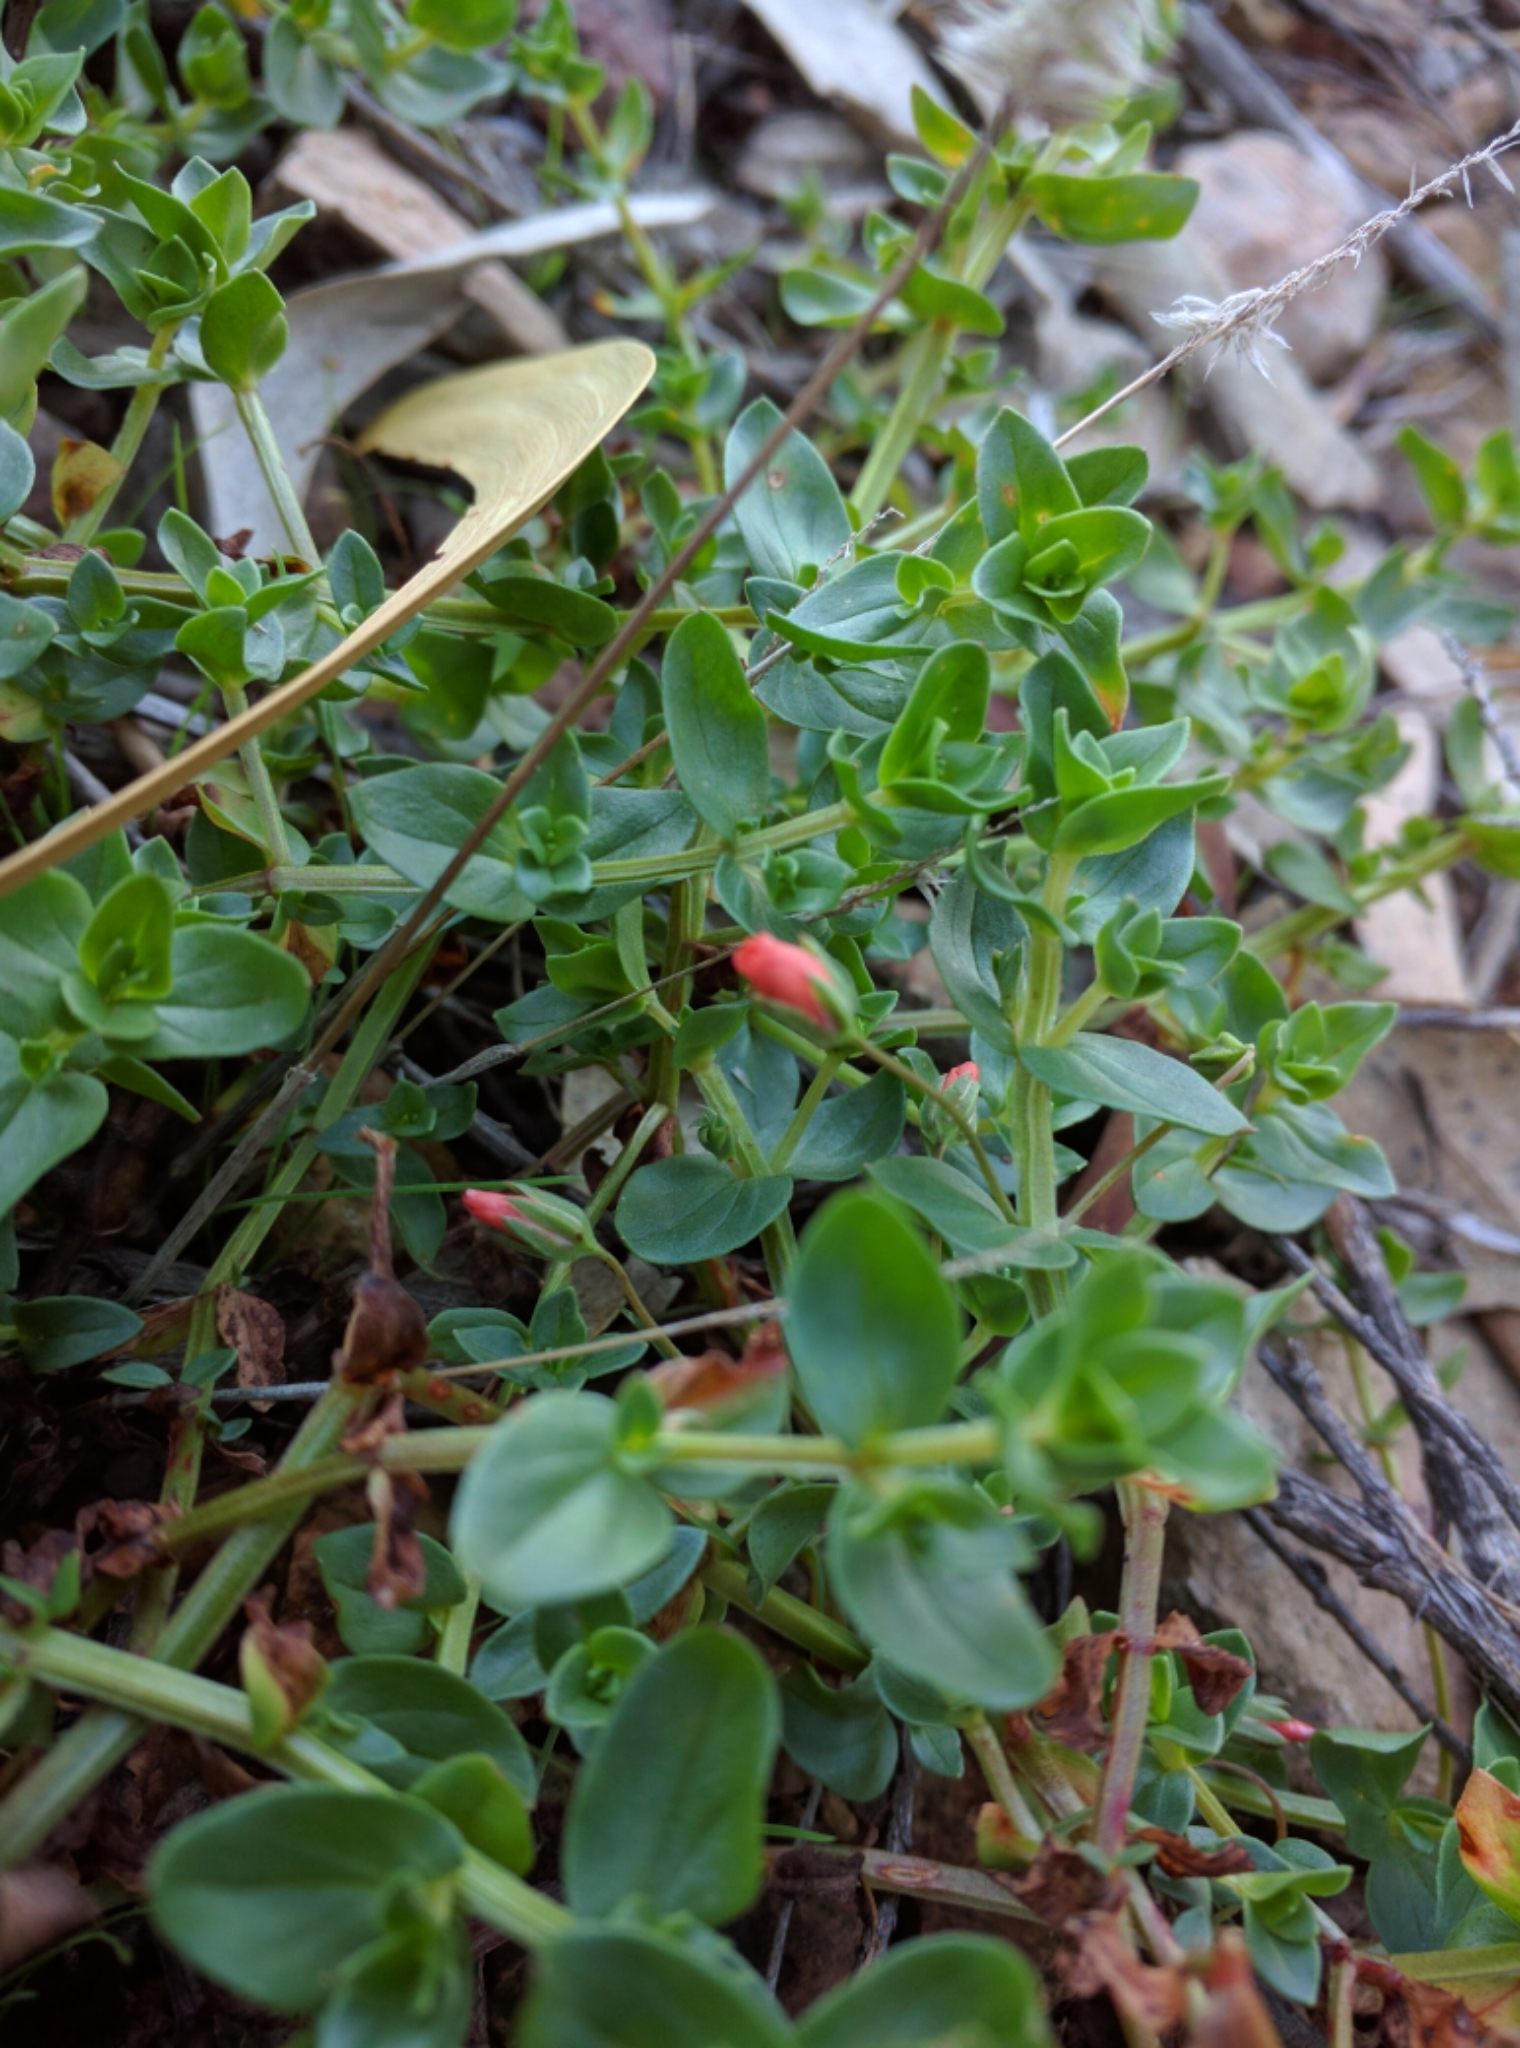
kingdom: Plantae
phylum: Tracheophyta
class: Magnoliopsida
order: Ericales
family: Primulaceae
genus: Lysimachia
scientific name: Lysimachia arvensis
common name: Scarlet pimpernel
